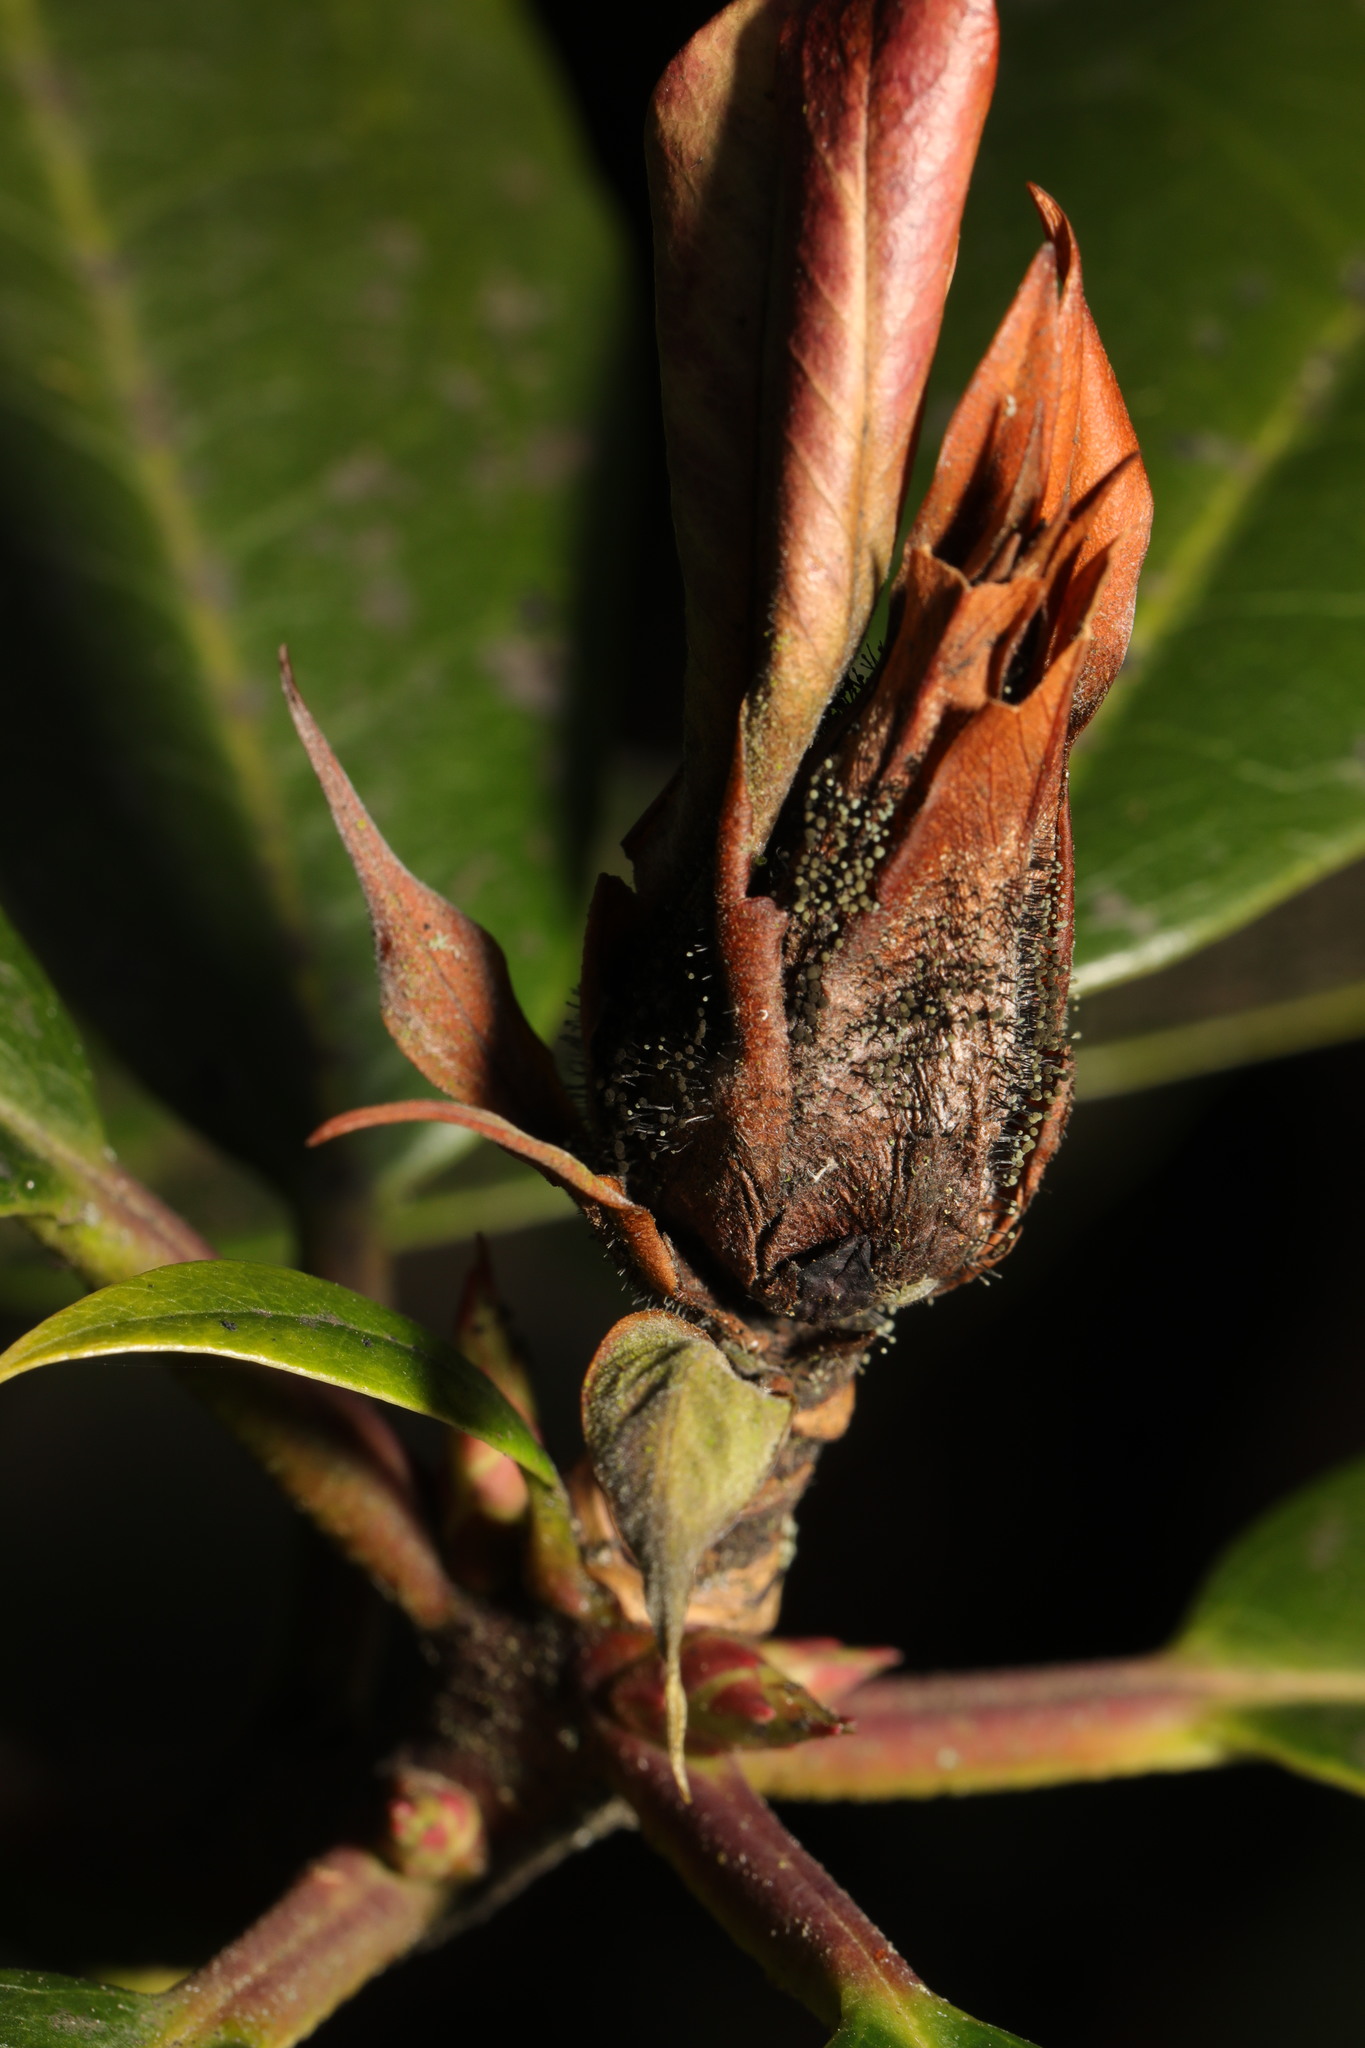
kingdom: Fungi
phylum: Ascomycota
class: Dothideomycetes
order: Pleosporales
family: Melanommataceae
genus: Seifertia
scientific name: Seifertia azaleae
